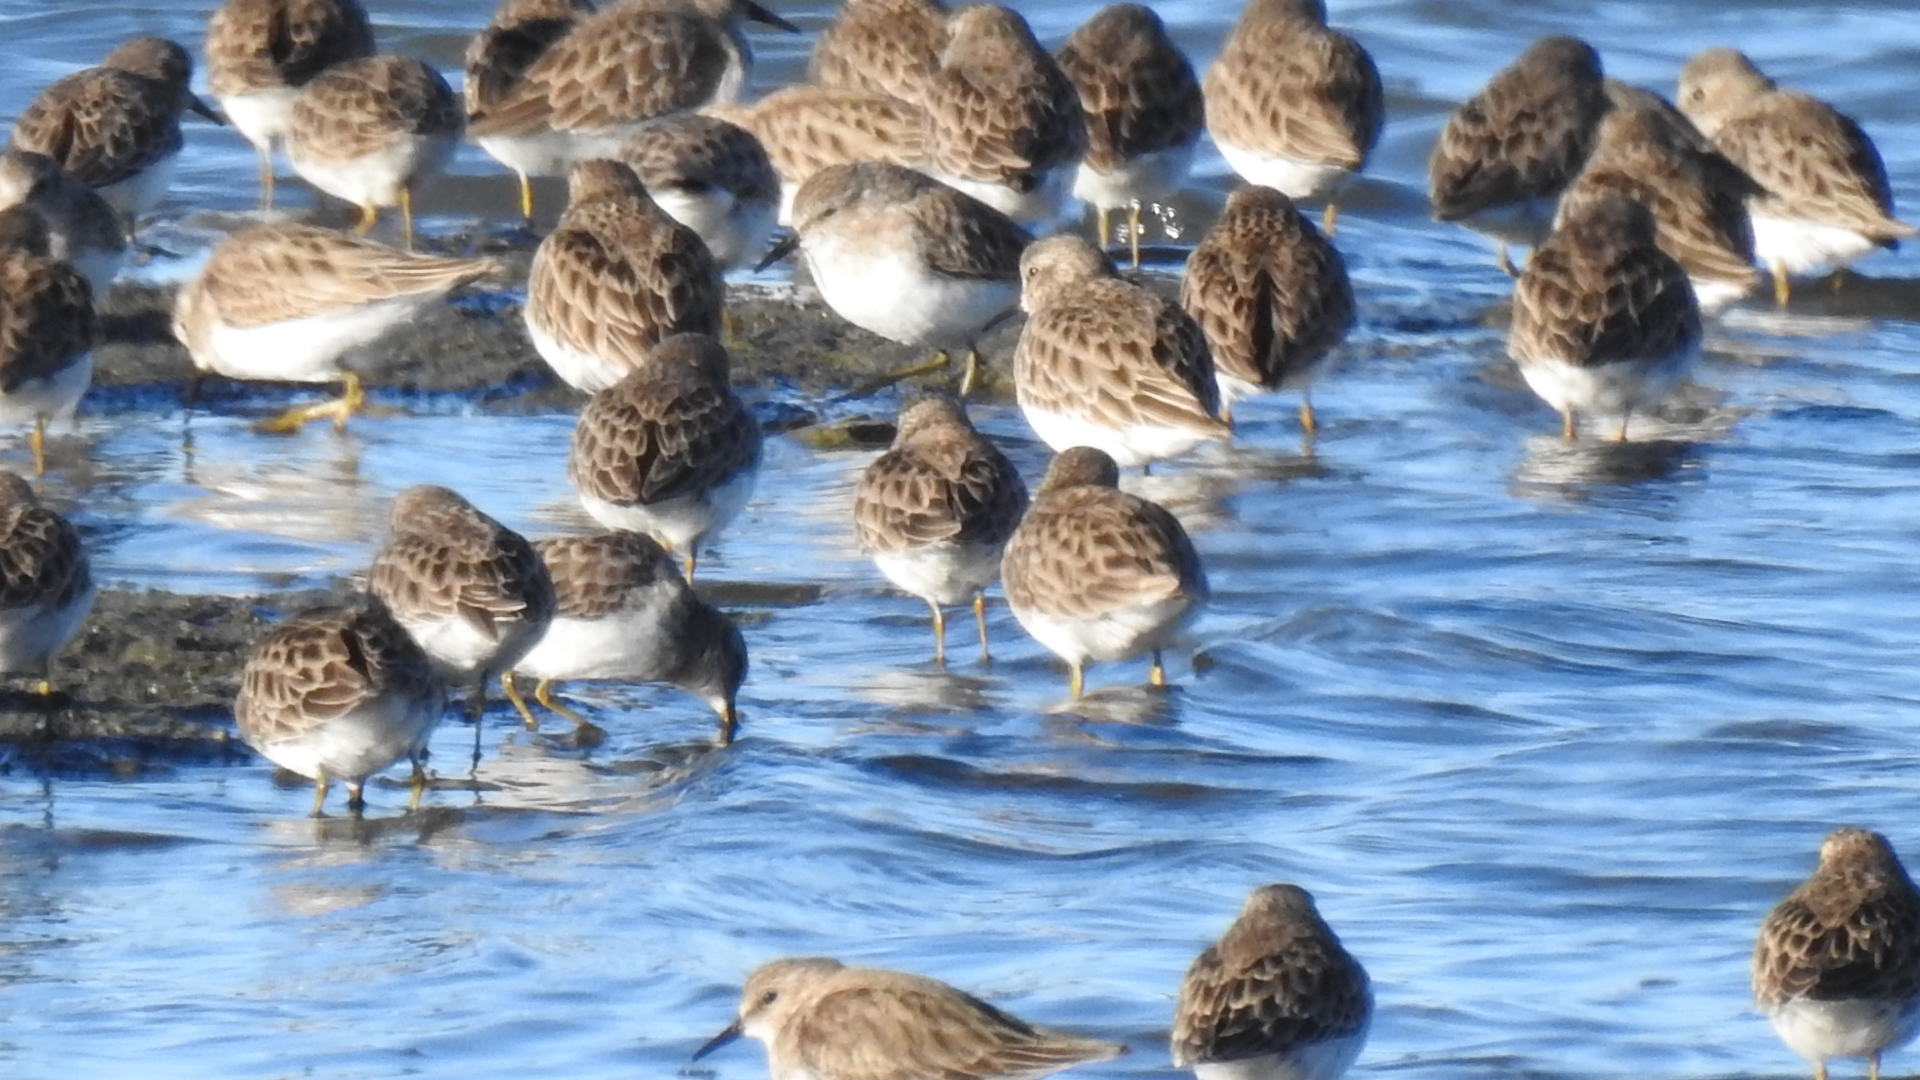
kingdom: Animalia
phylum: Chordata
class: Aves
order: Charadriiformes
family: Scolopacidae
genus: Calidris
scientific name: Calidris minutilla
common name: Least sandpiper
